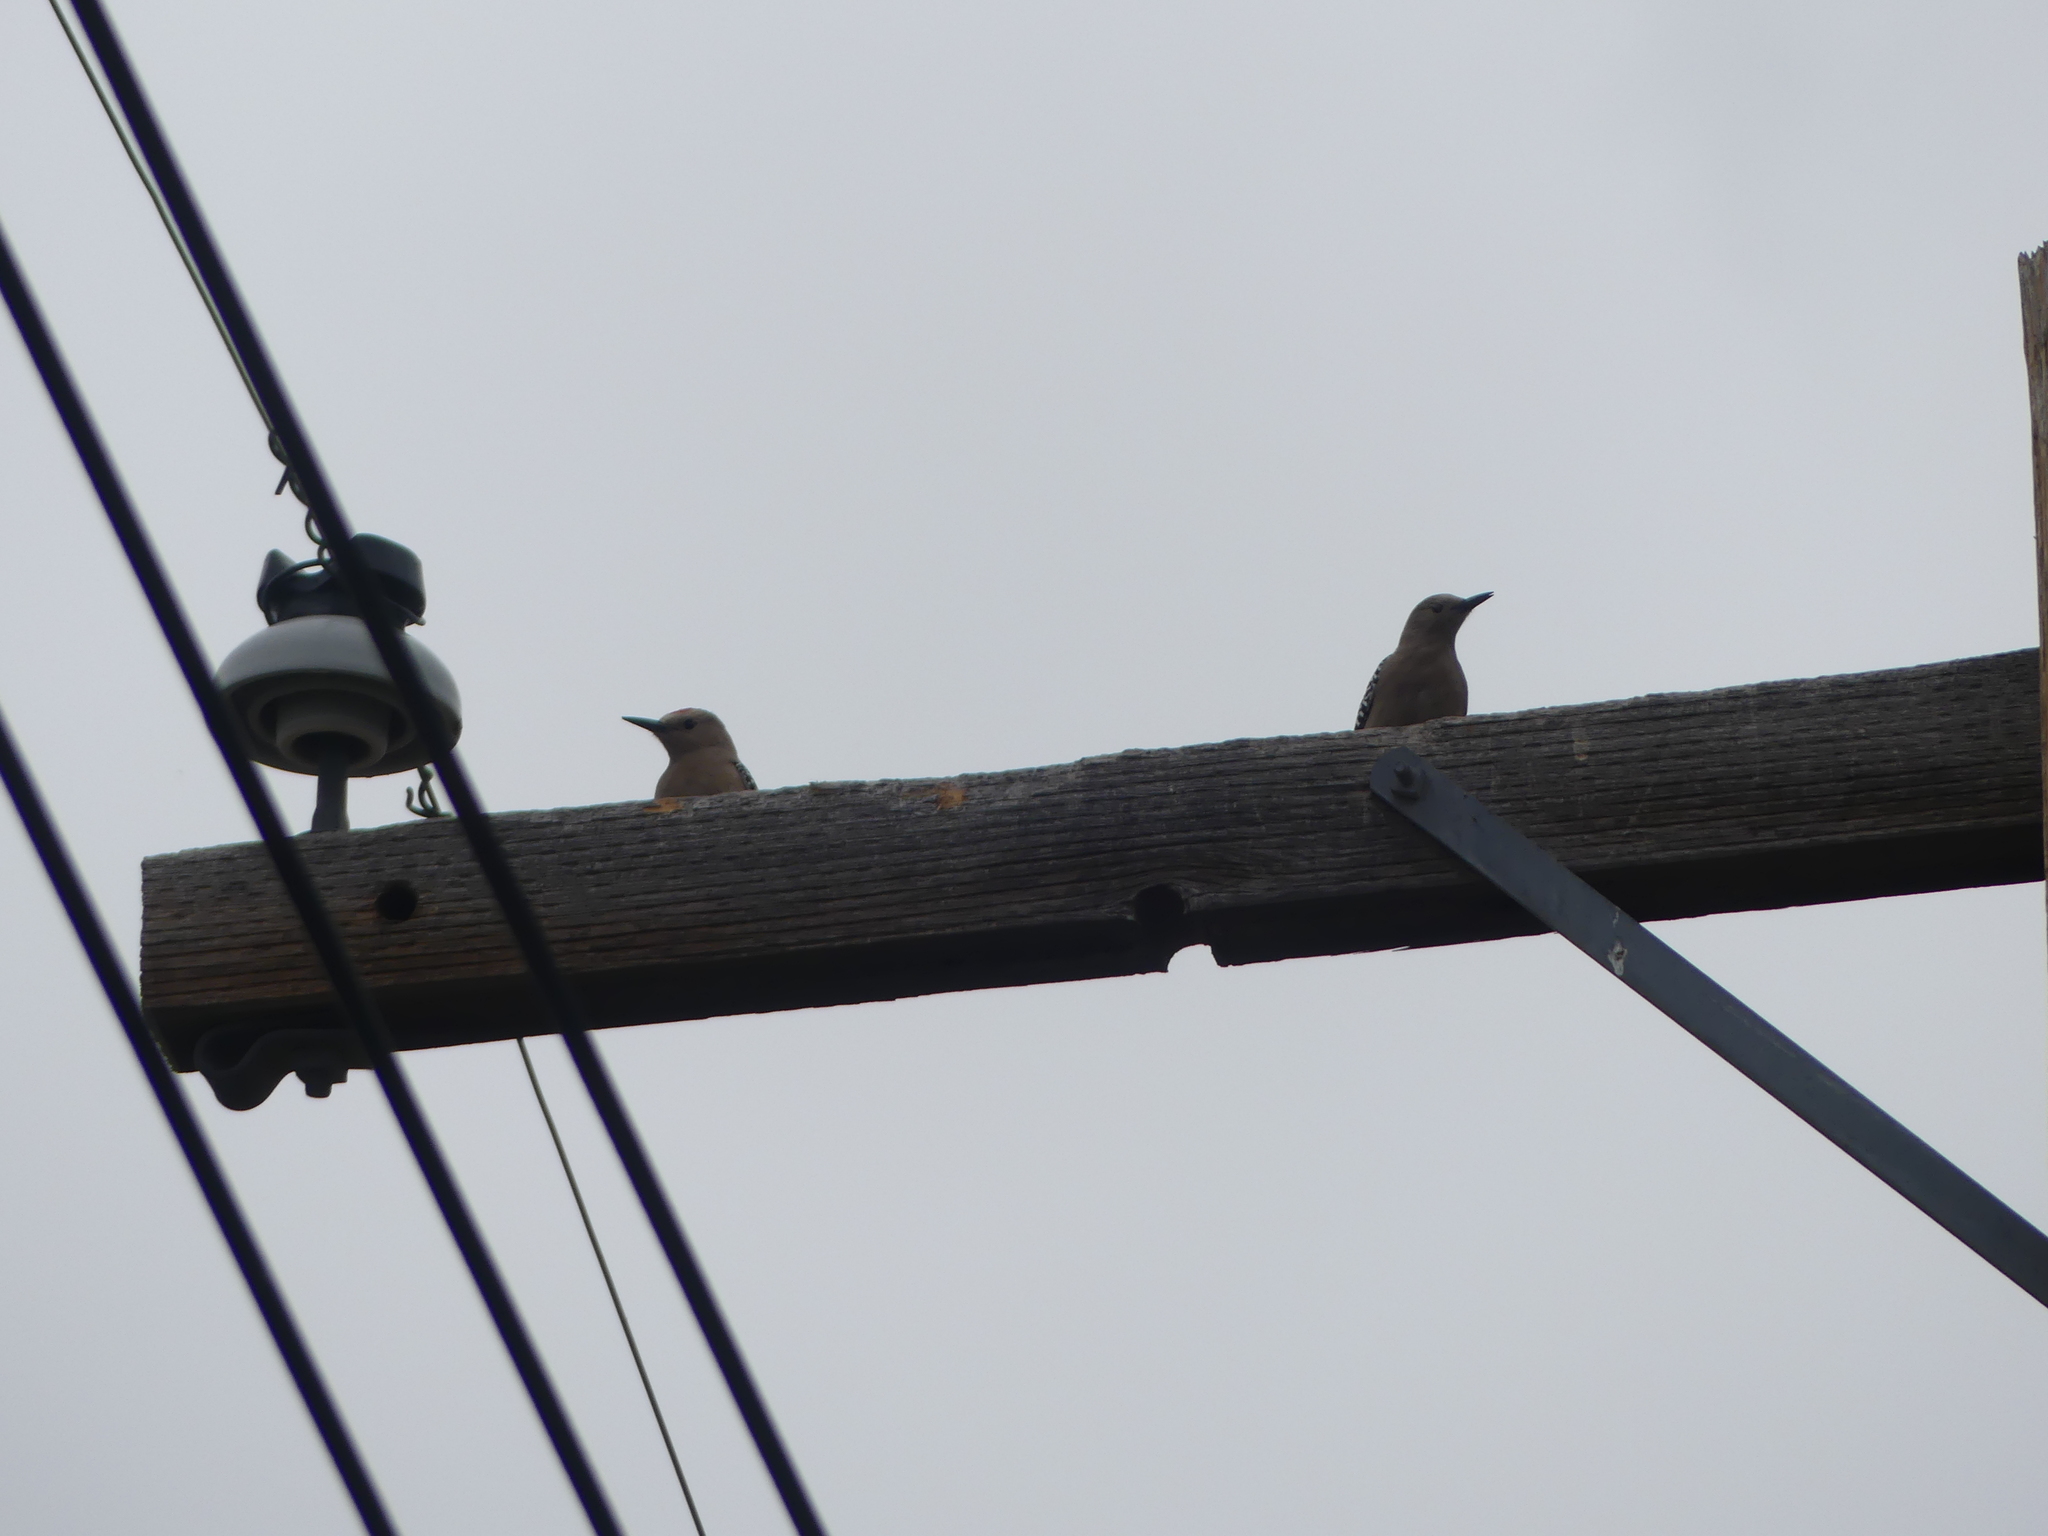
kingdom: Animalia
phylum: Chordata
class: Aves
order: Piciformes
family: Picidae
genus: Melanerpes
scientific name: Melanerpes uropygialis
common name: Gila woodpecker
